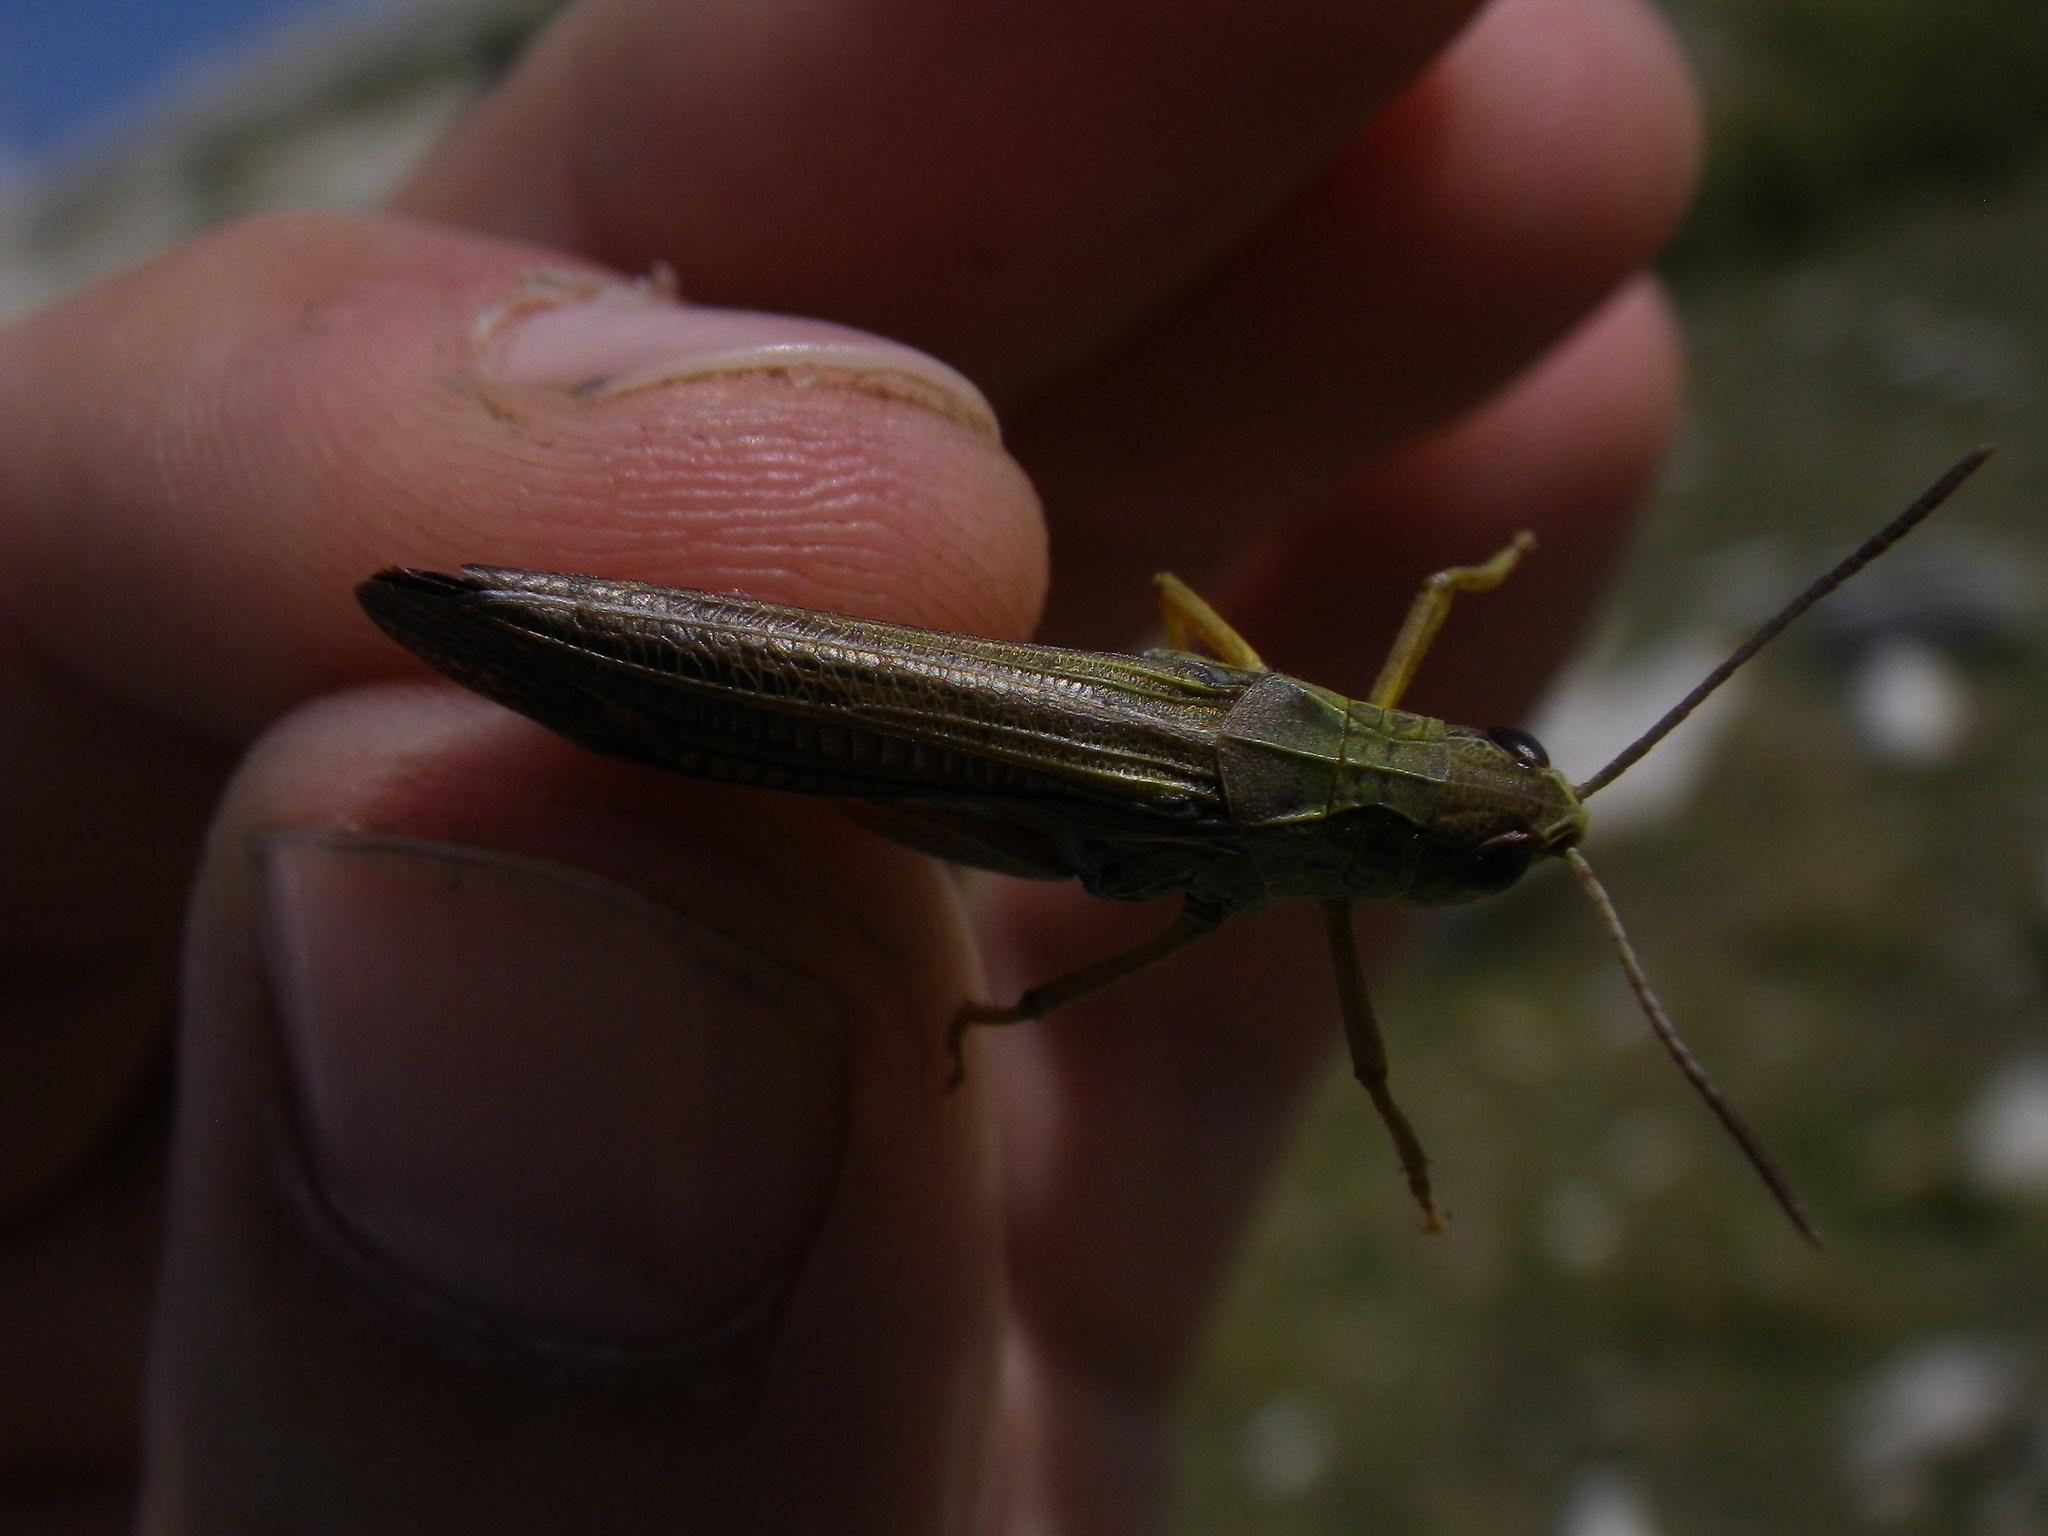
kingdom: Animalia
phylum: Arthropoda
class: Insecta
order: Orthoptera
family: Acrididae
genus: Stauroderus
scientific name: Stauroderus scalaris
